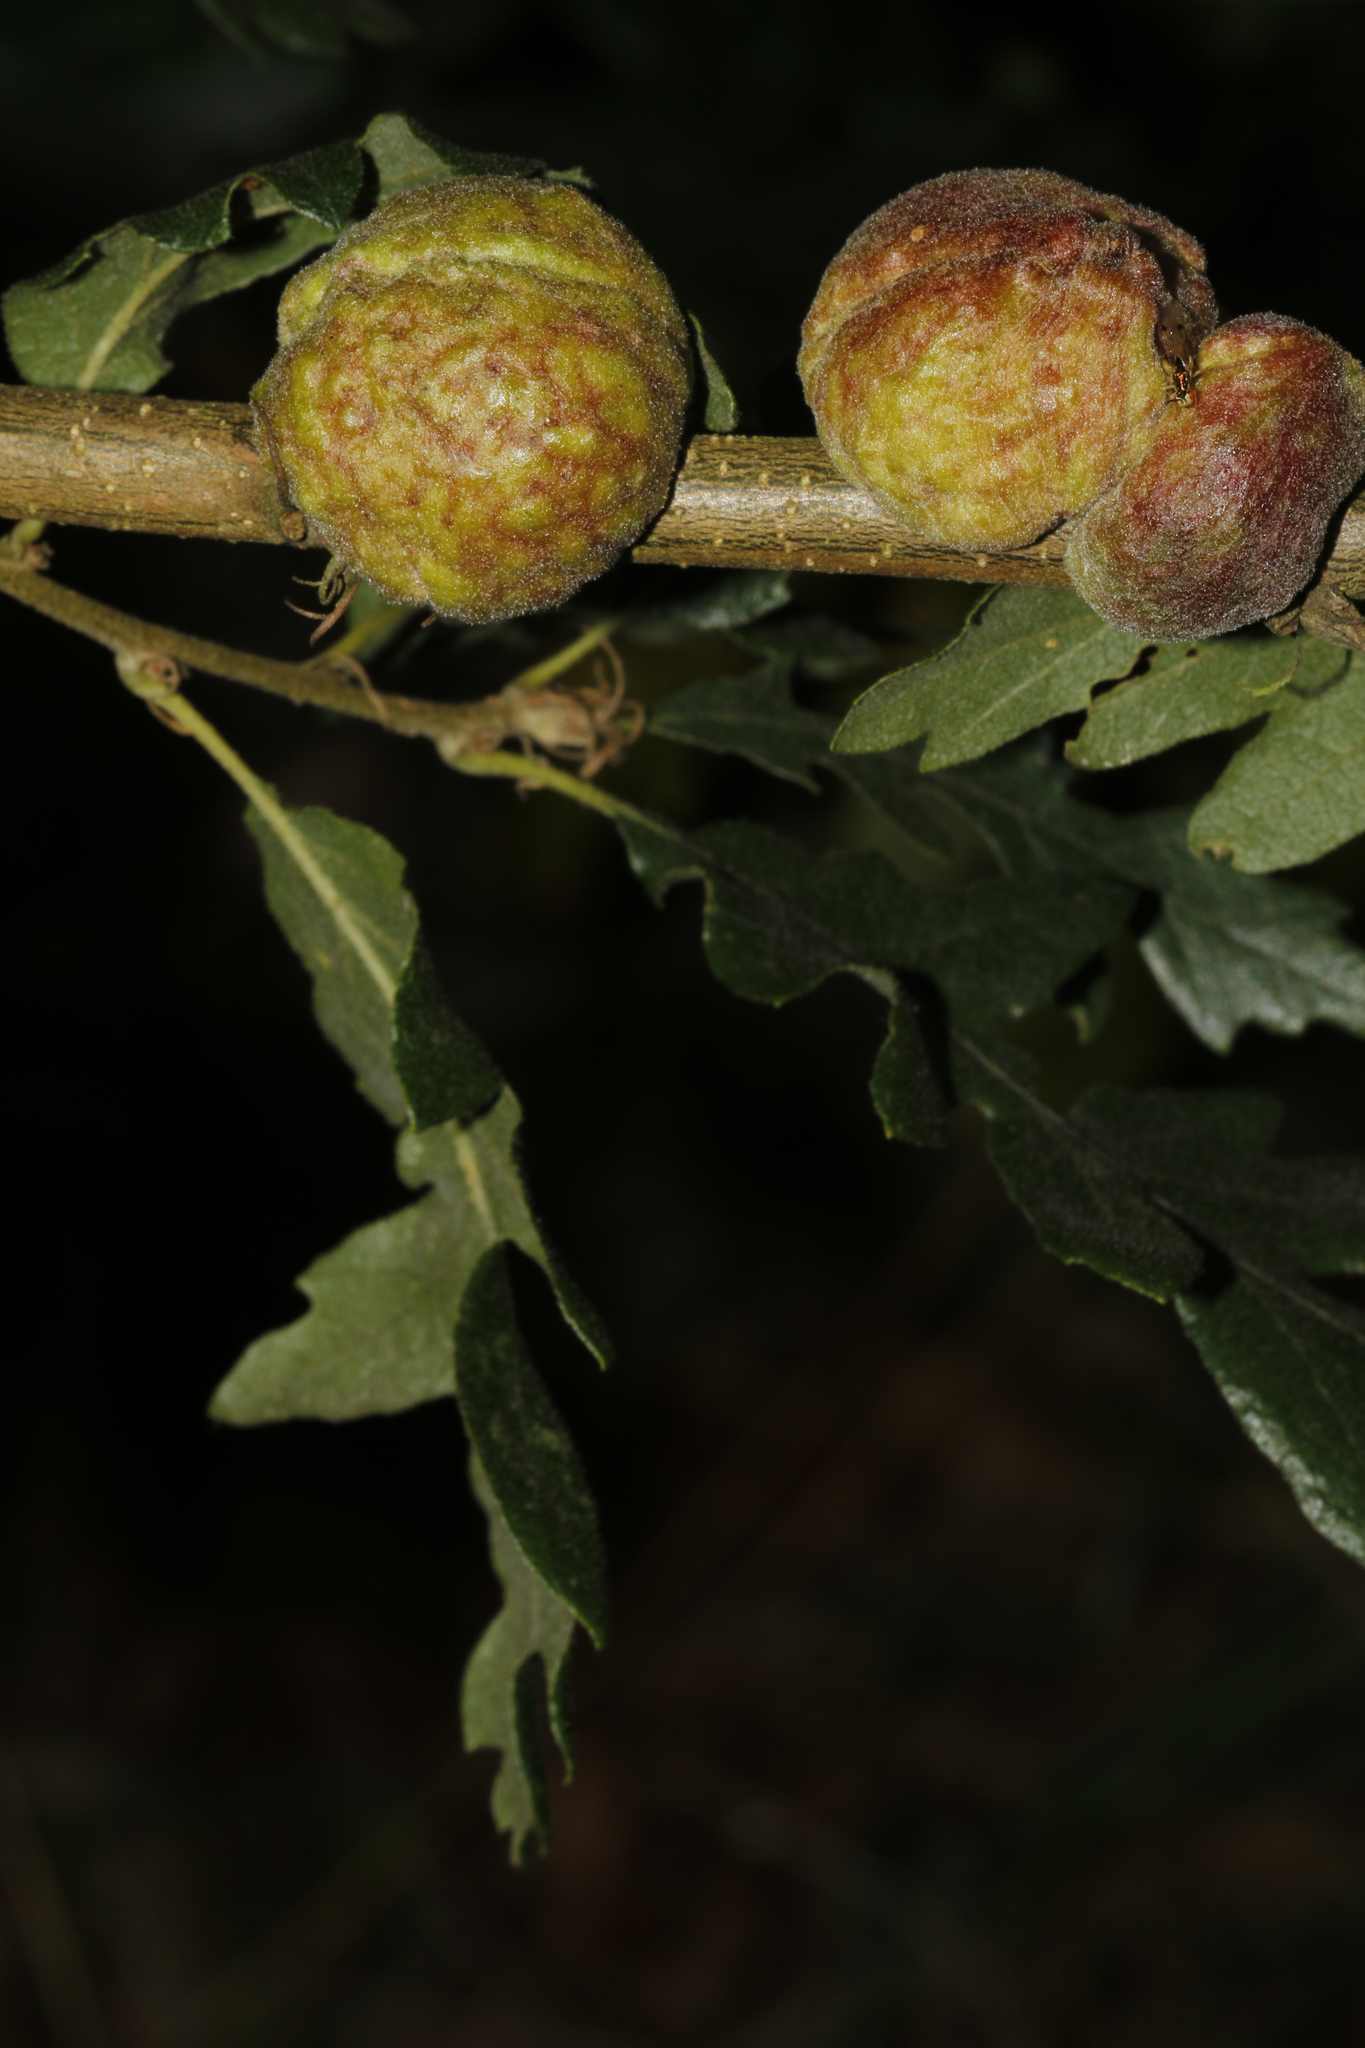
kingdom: Animalia
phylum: Arthropoda
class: Insecta
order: Hymenoptera
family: Cynipidae
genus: Aphelonyx
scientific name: Aphelonyx cerricola
